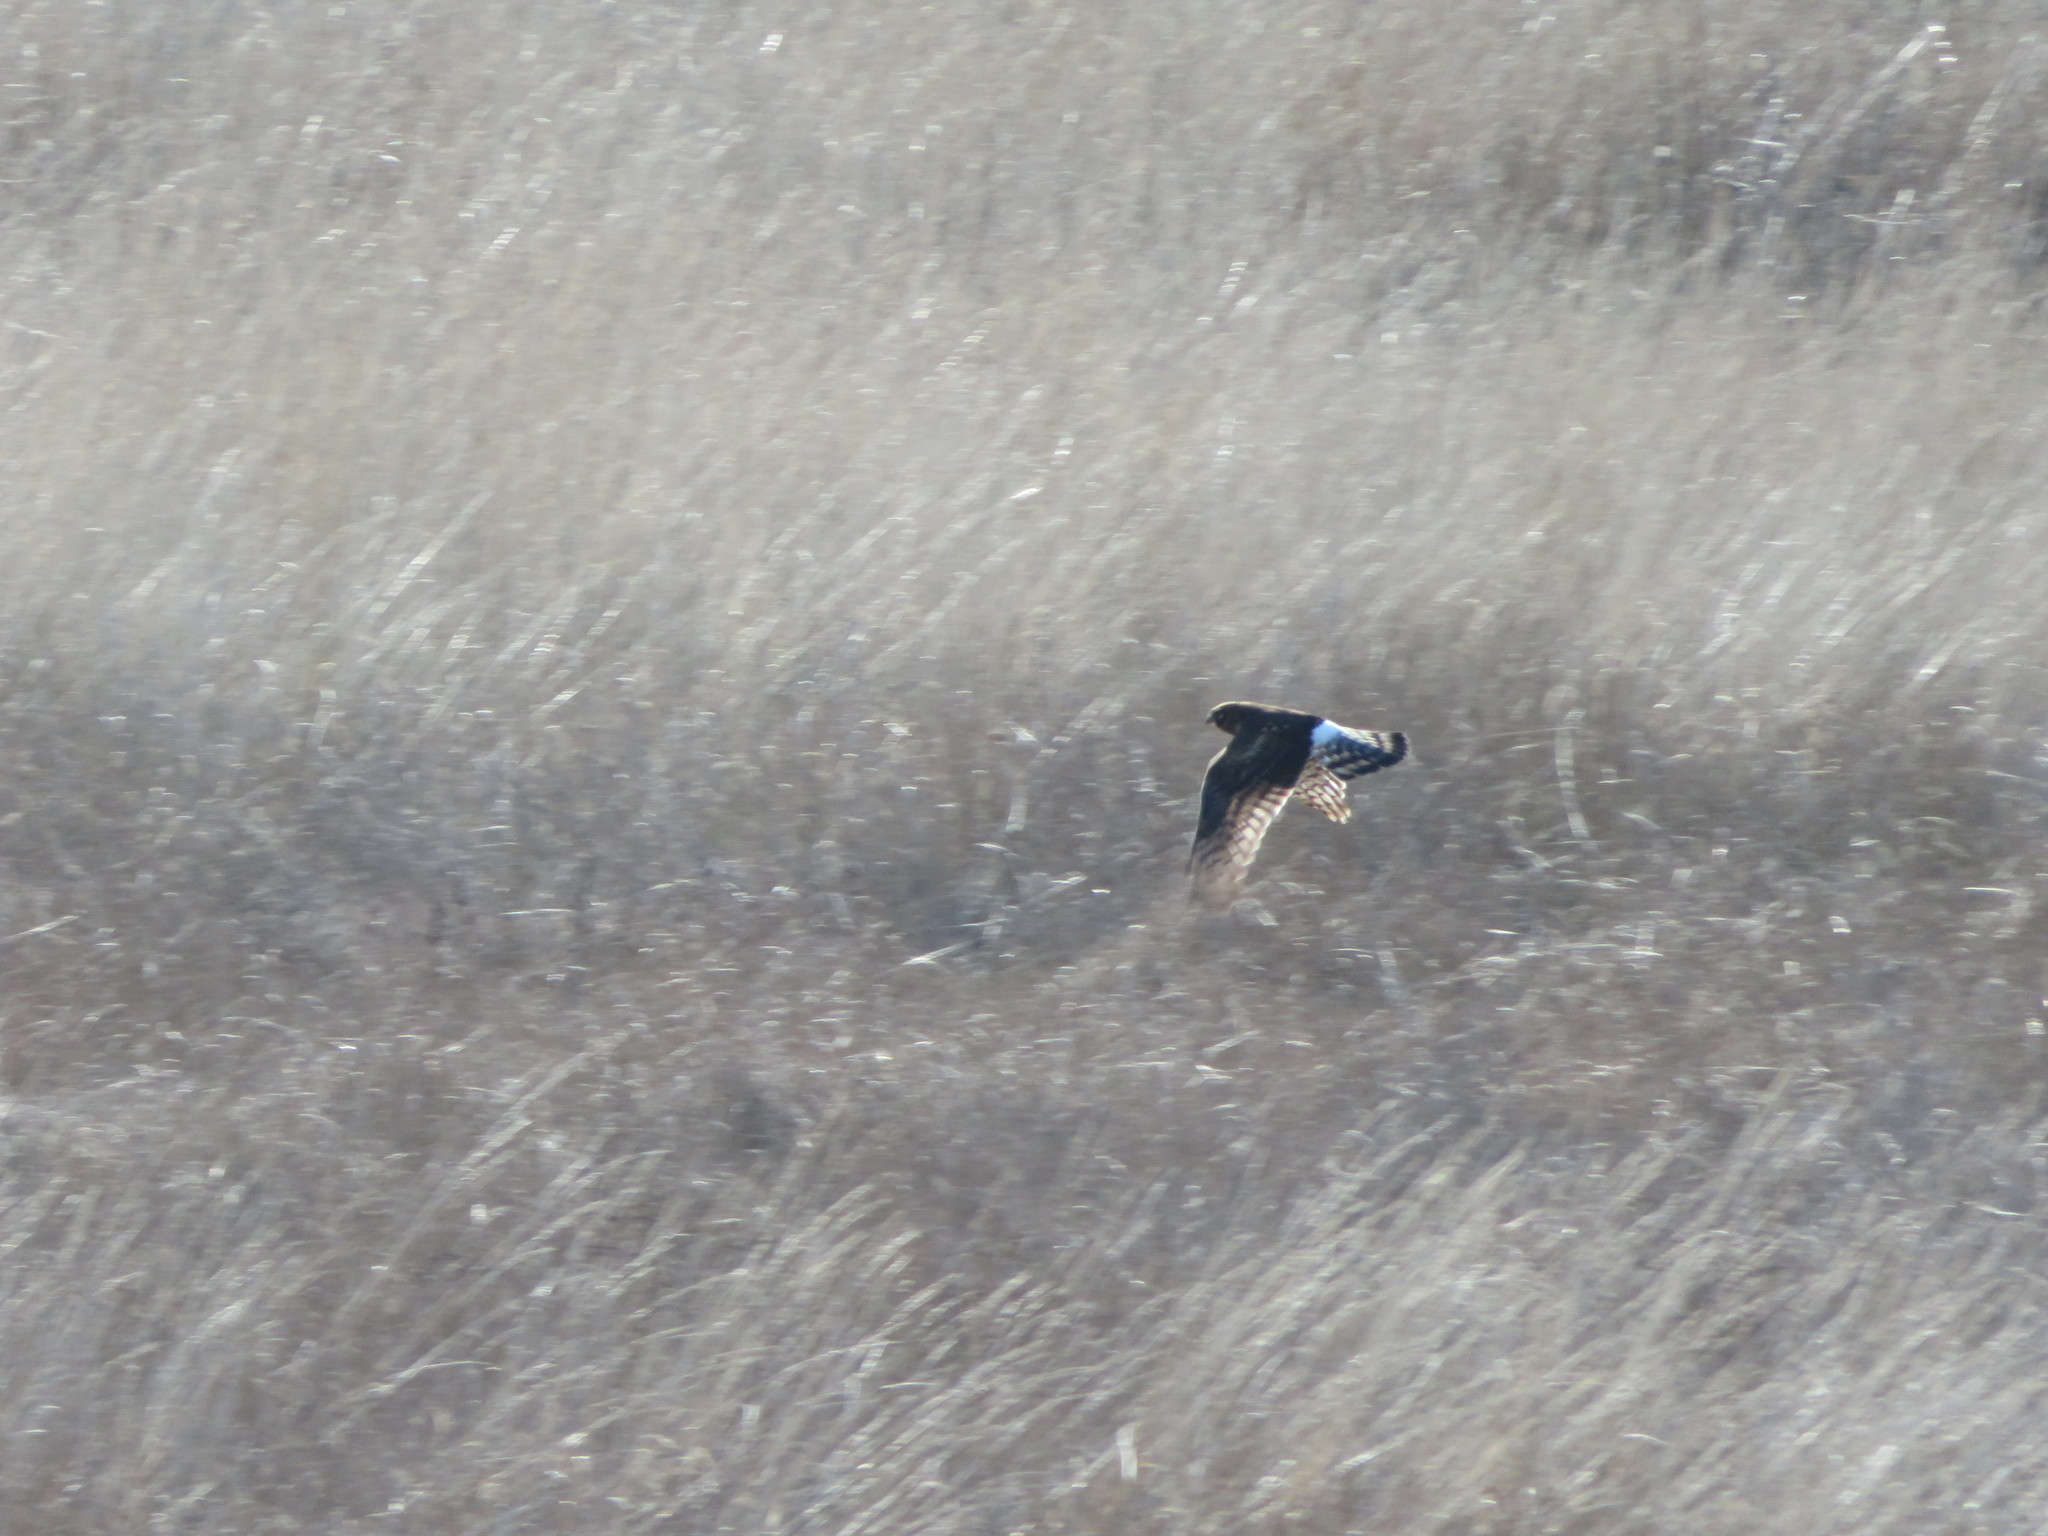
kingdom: Animalia
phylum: Chordata
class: Aves
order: Accipitriformes
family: Accipitridae
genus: Circus
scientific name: Circus cyaneus
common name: Hen harrier
